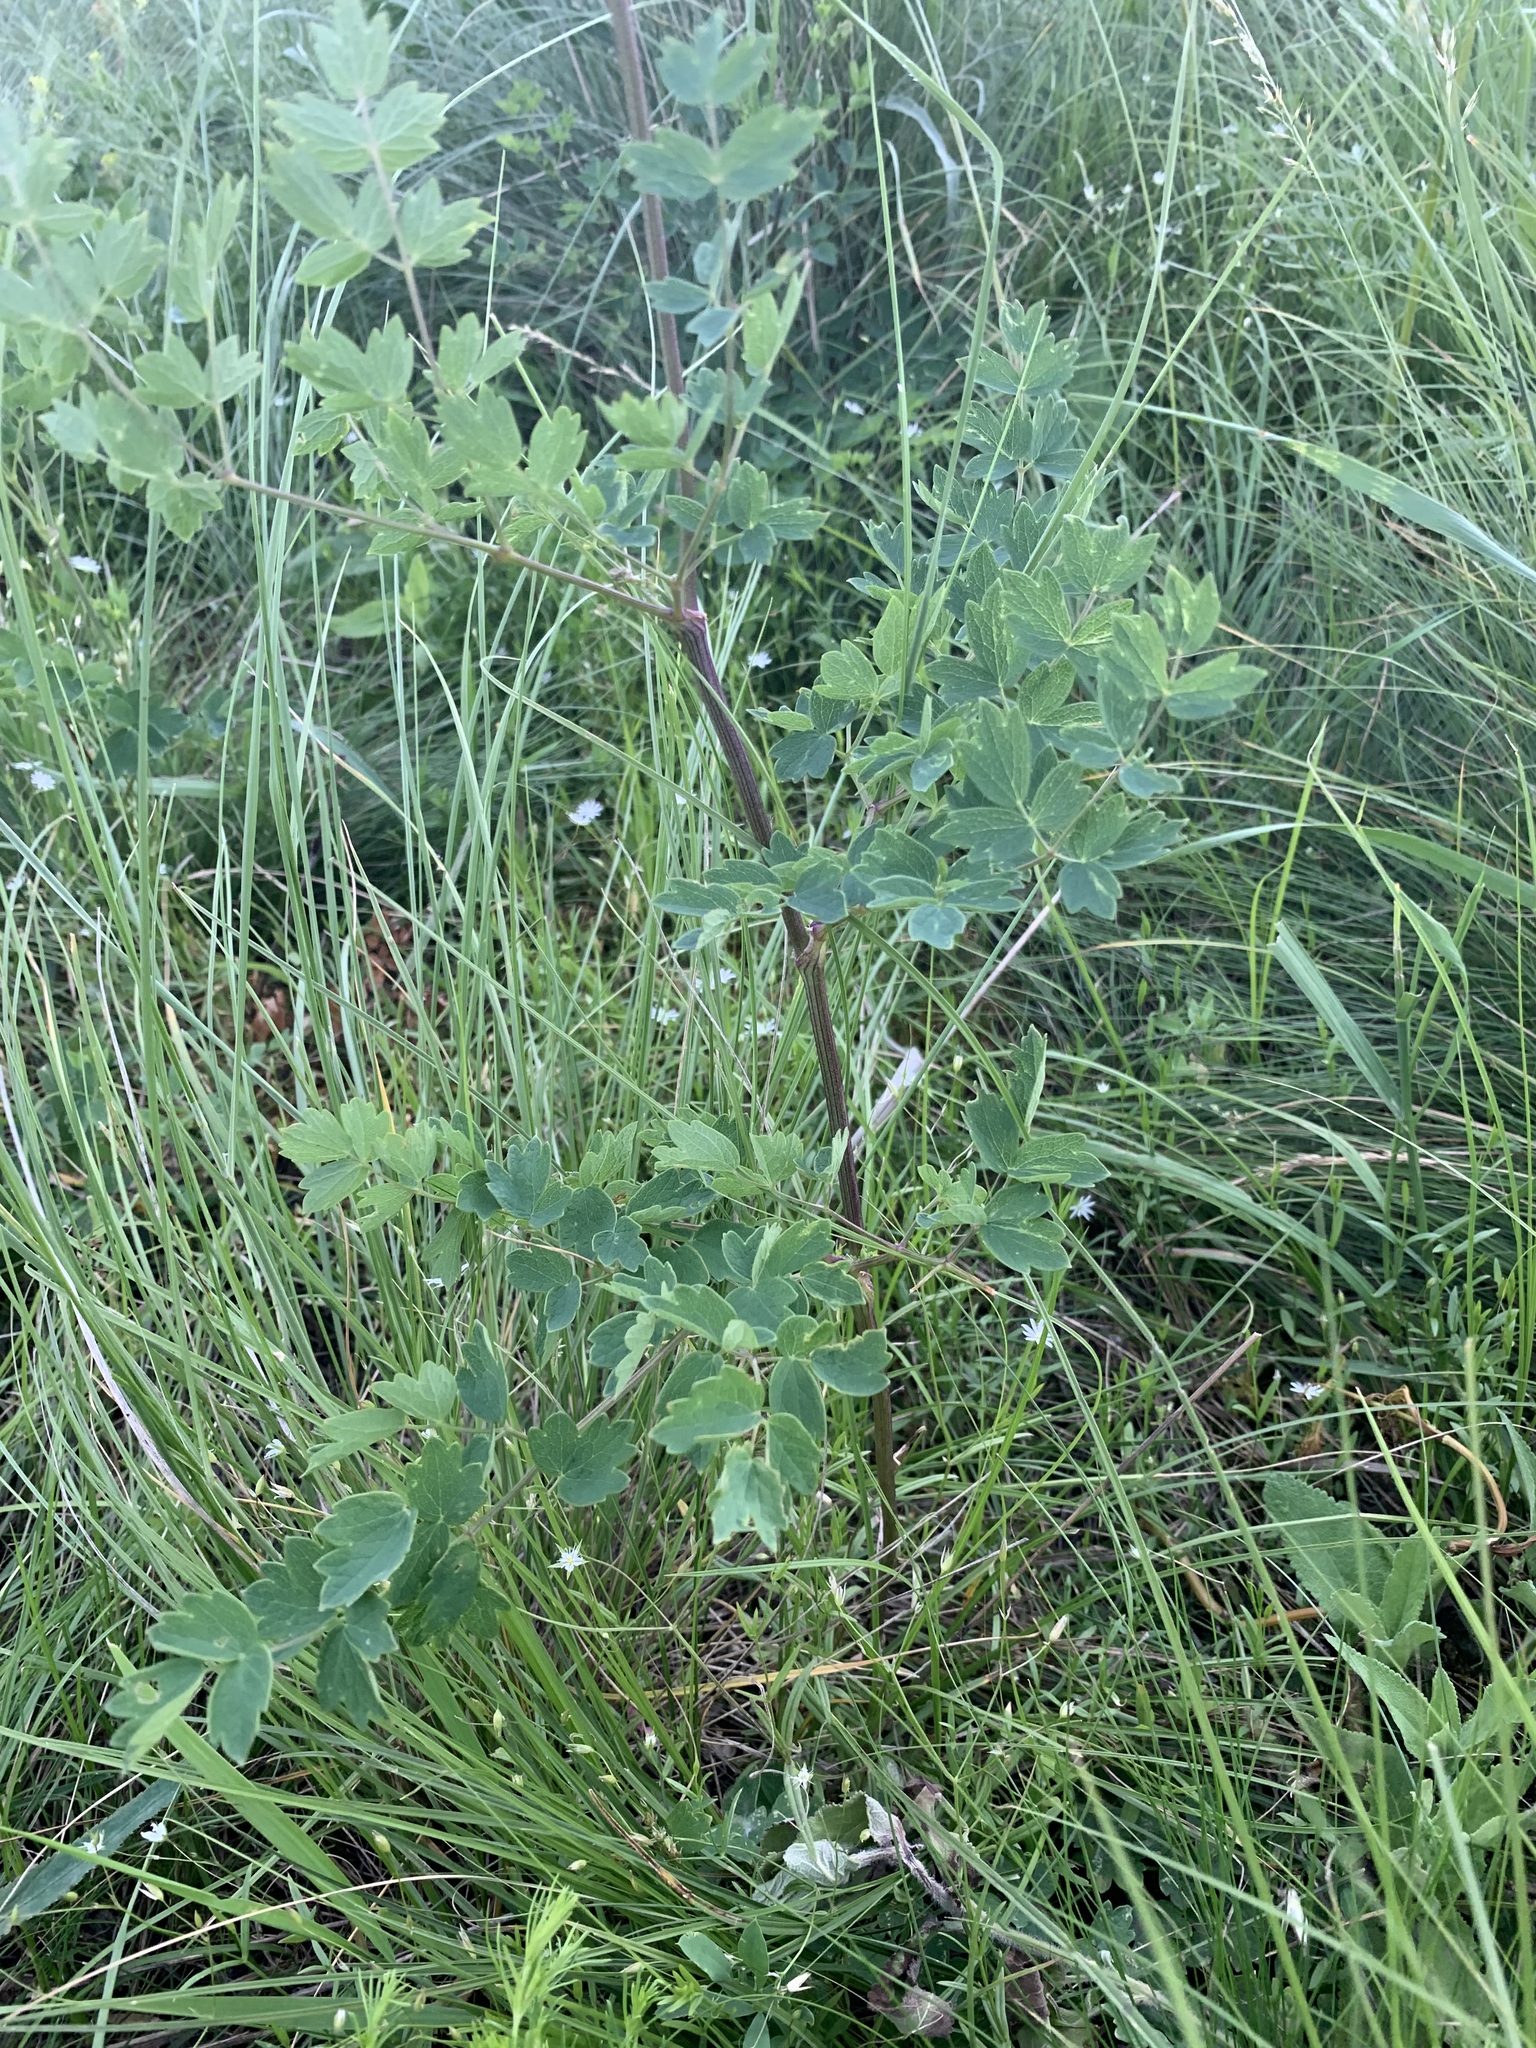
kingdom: Plantae
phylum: Tracheophyta
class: Magnoliopsida
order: Ranunculales
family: Ranunculaceae
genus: Thalictrum
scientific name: Thalictrum minus
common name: Lesser meadow-rue
